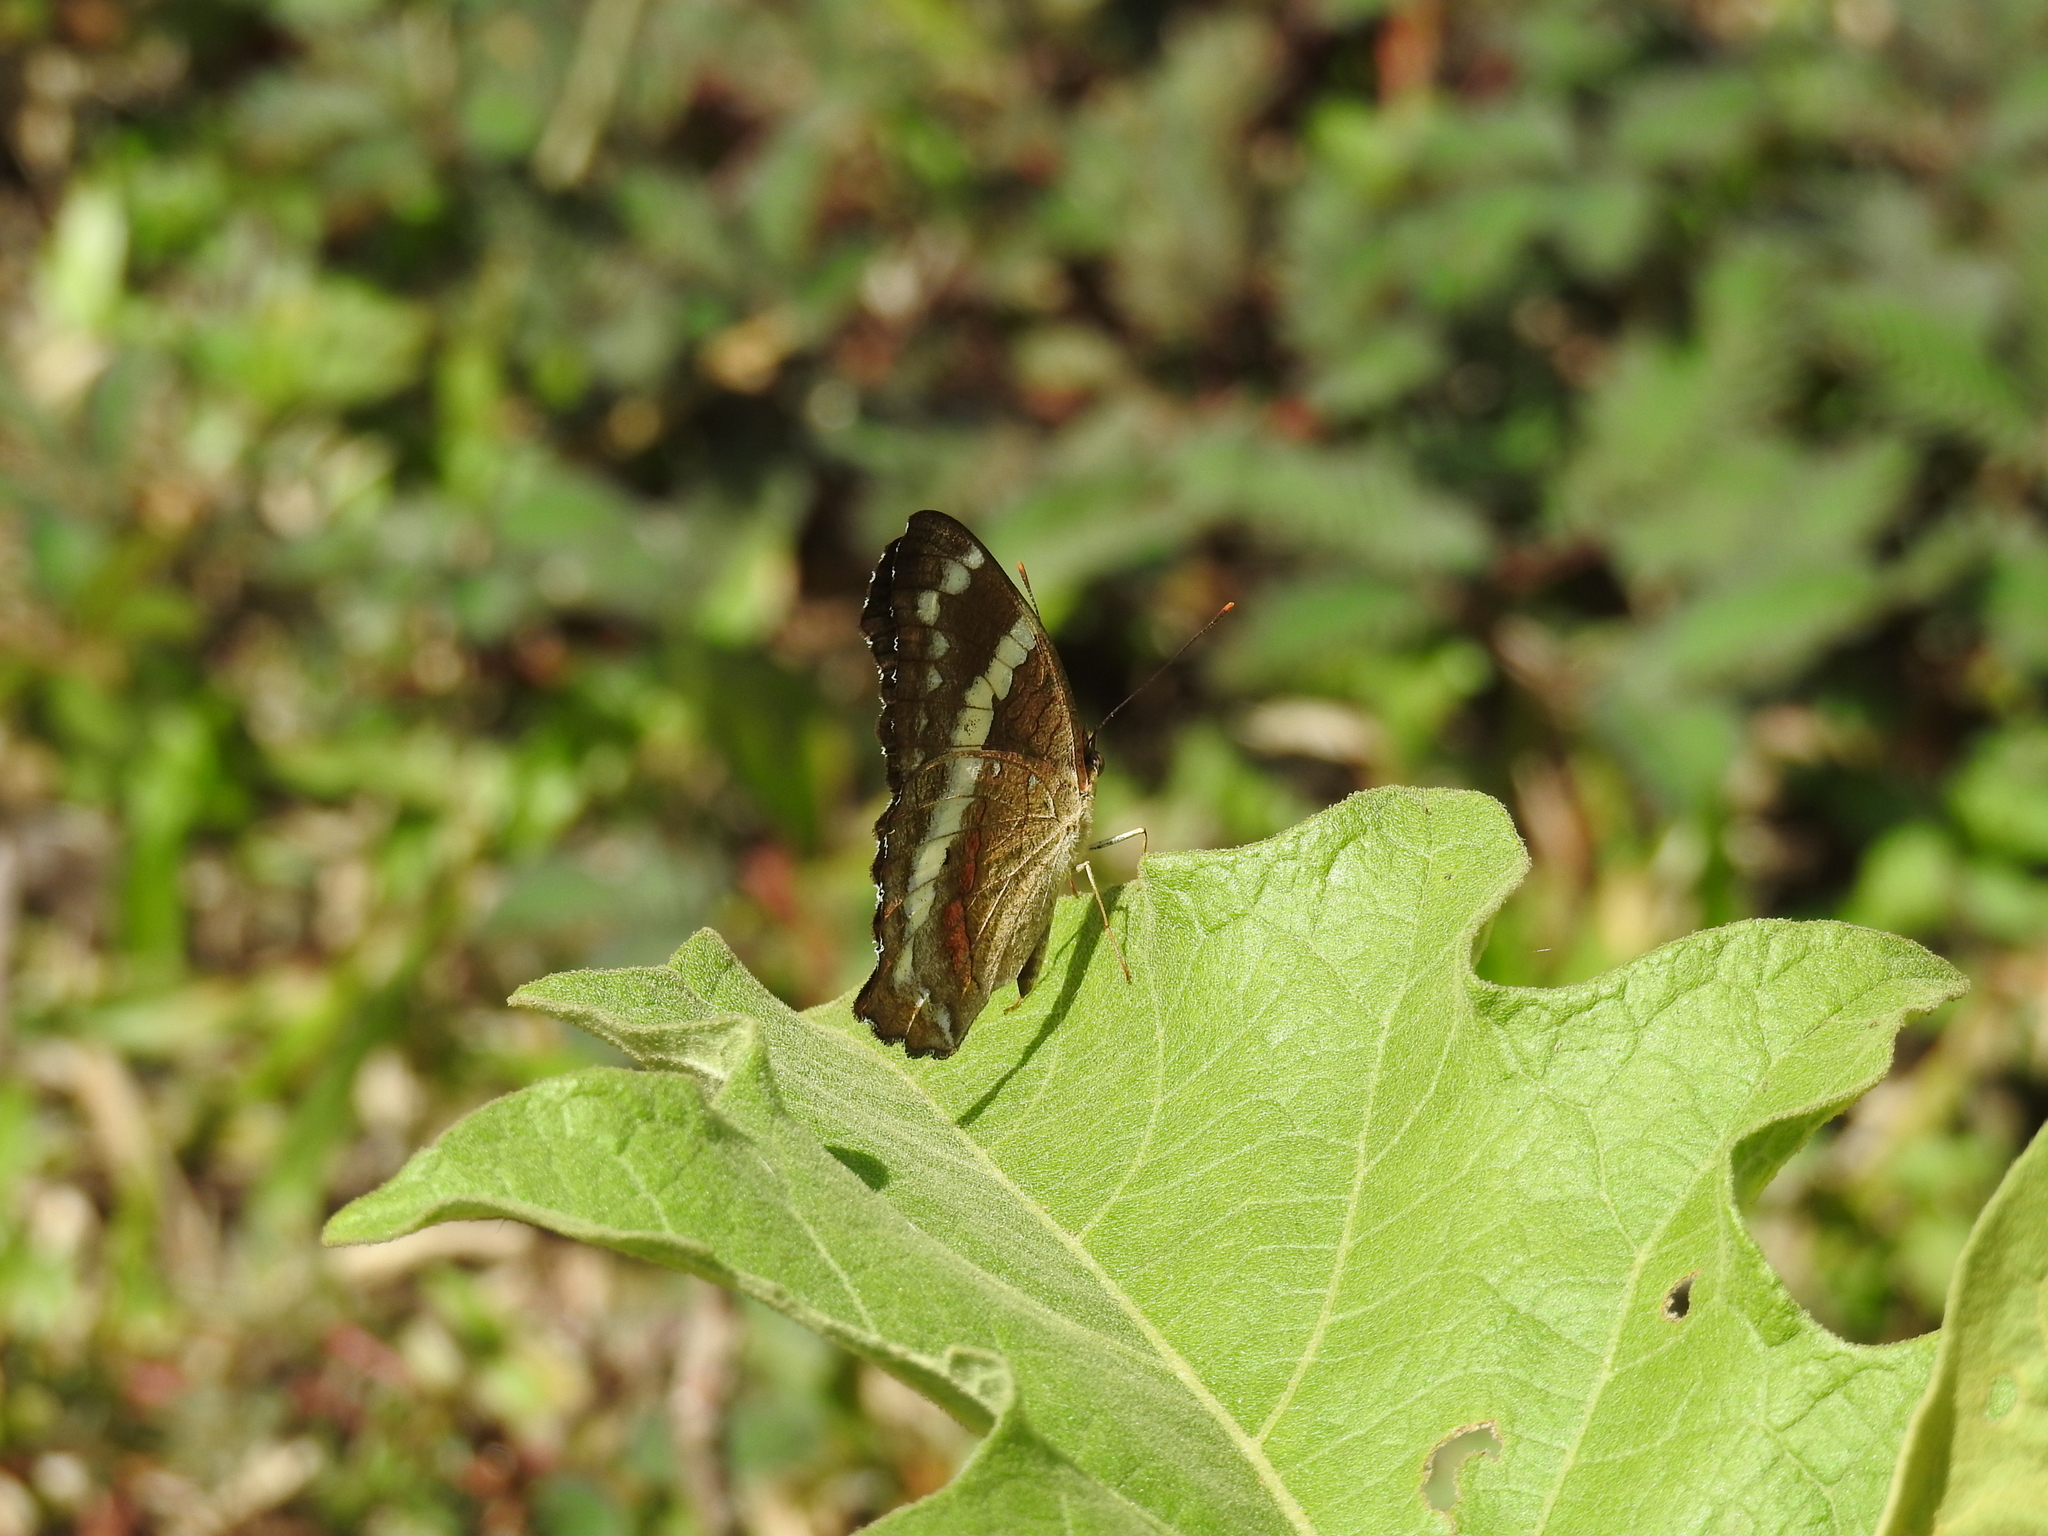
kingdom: Animalia
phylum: Arthropoda
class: Insecta
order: Lepidoptera
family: Nymphalidae
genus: Anartia
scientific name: Anartia fatima
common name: Banded peacock
